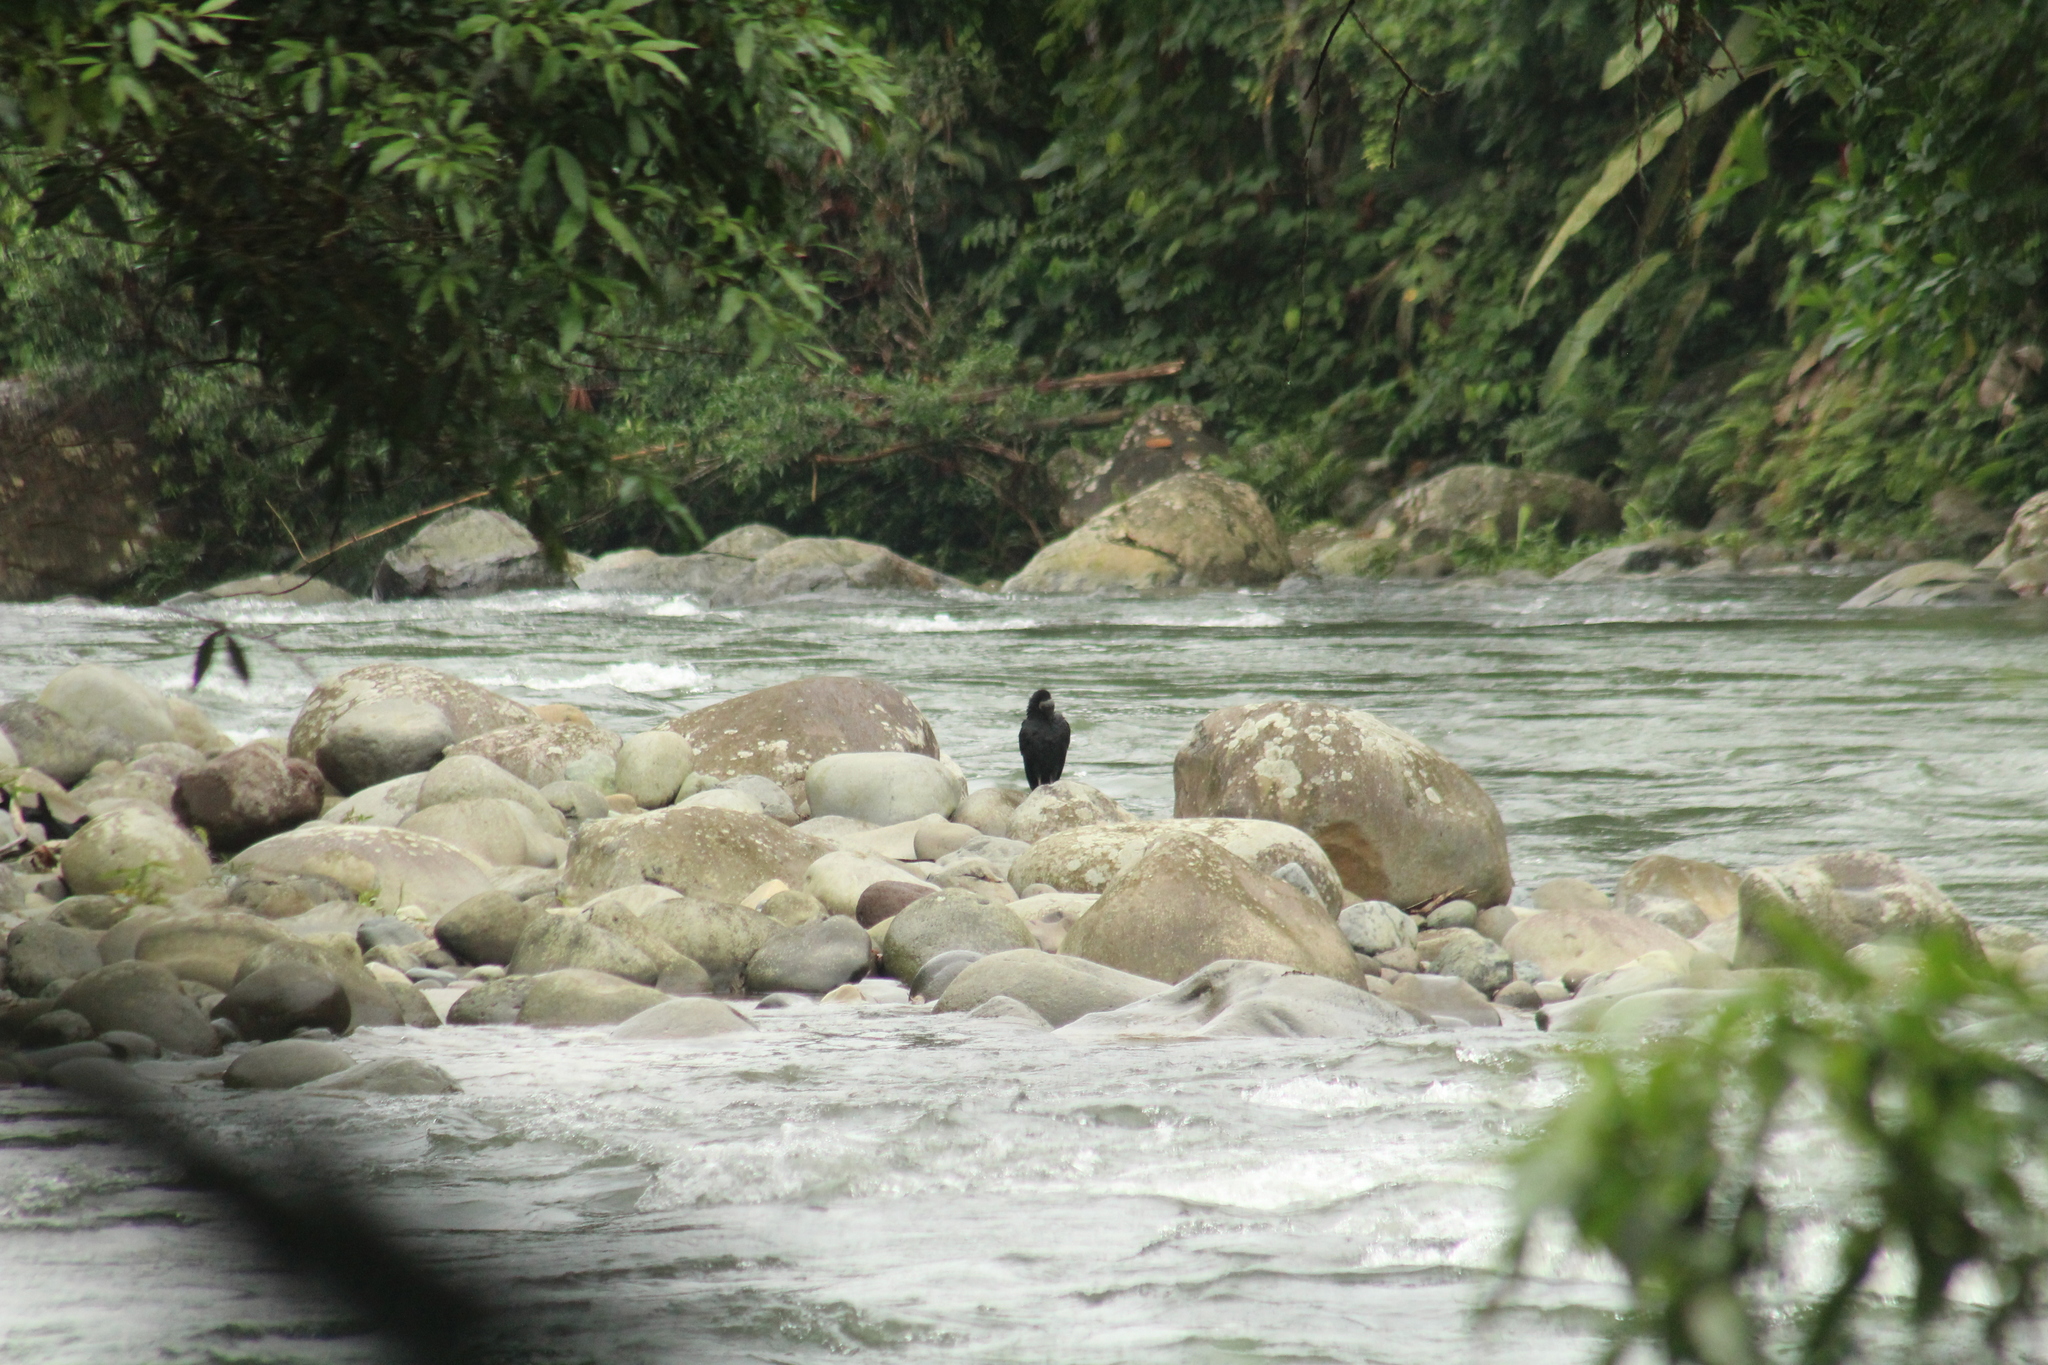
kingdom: Animalia
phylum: Chordata
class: Aves
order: Accipitriformes
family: Cathartidae
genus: Coragyps
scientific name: Coragyps atratus
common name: Black vulture
